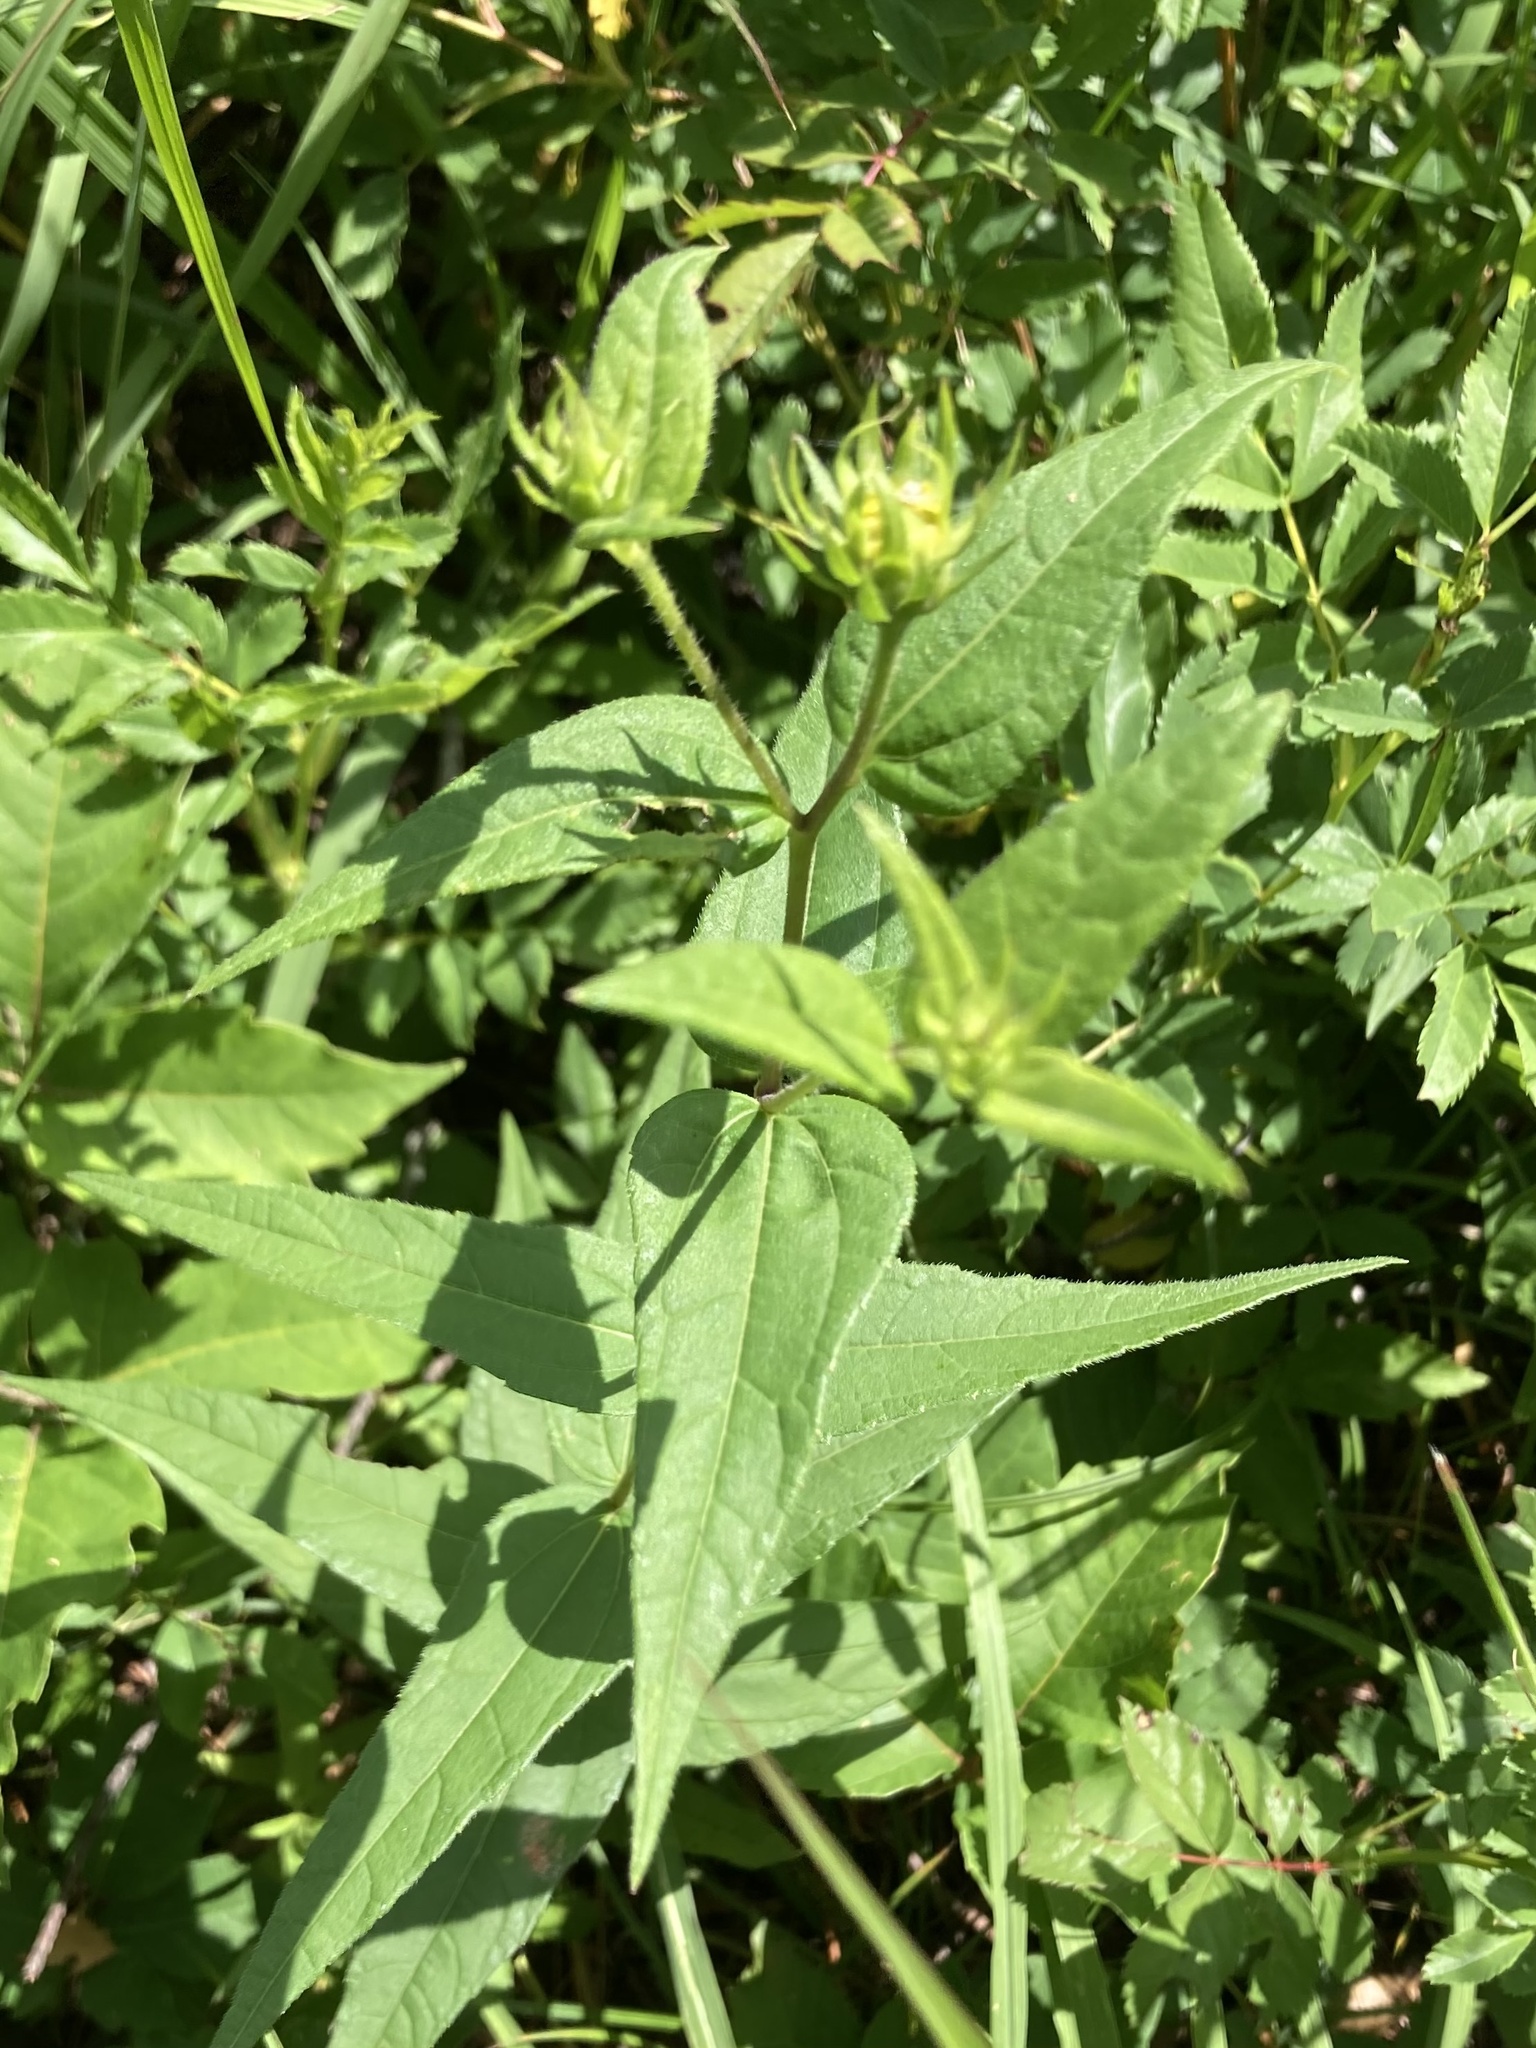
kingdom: Plantae
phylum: Tracheophyta
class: Magnoliopsida
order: Asterales
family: Asteraceae
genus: Helianthus
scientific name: Helianthus divaricatus
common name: Divergent sunflower
